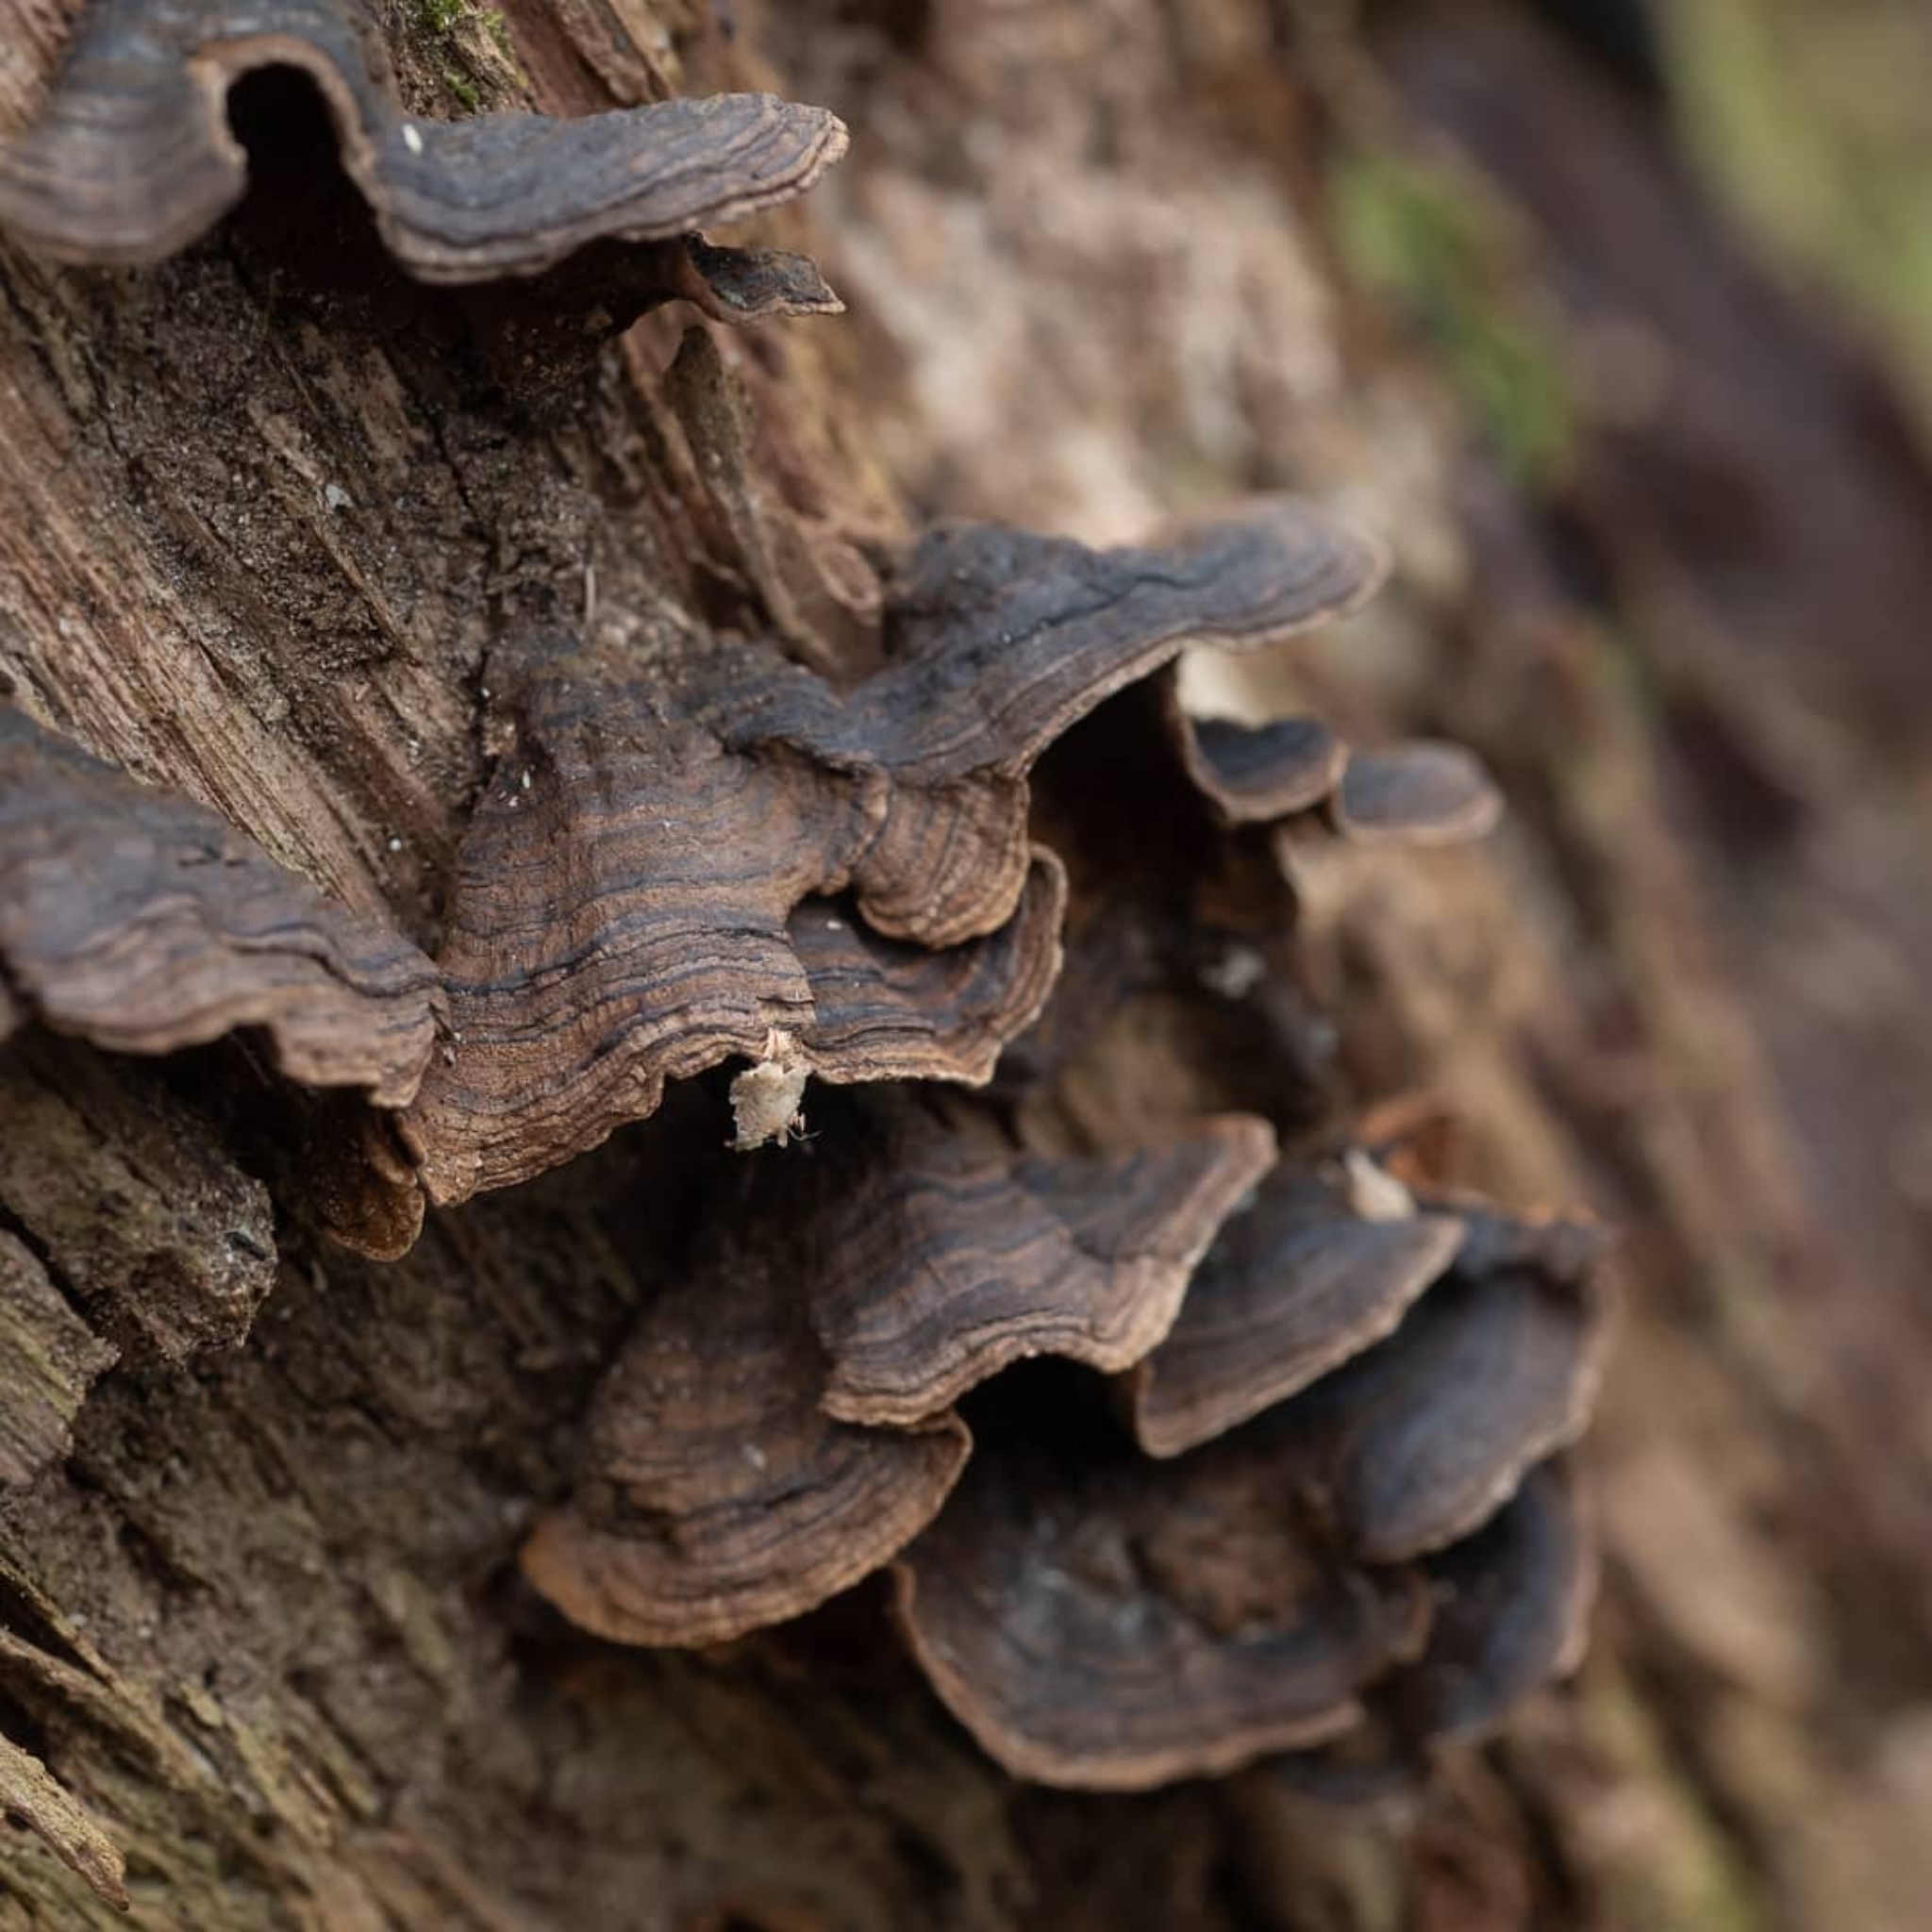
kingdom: Fungi
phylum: Basidiomycota
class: Agaricomycetes
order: Hymenochaetales
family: Hymenochaetaceae
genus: Hymenochaete
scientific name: Hymenochaete rubiginosa
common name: Oak curtain crust
